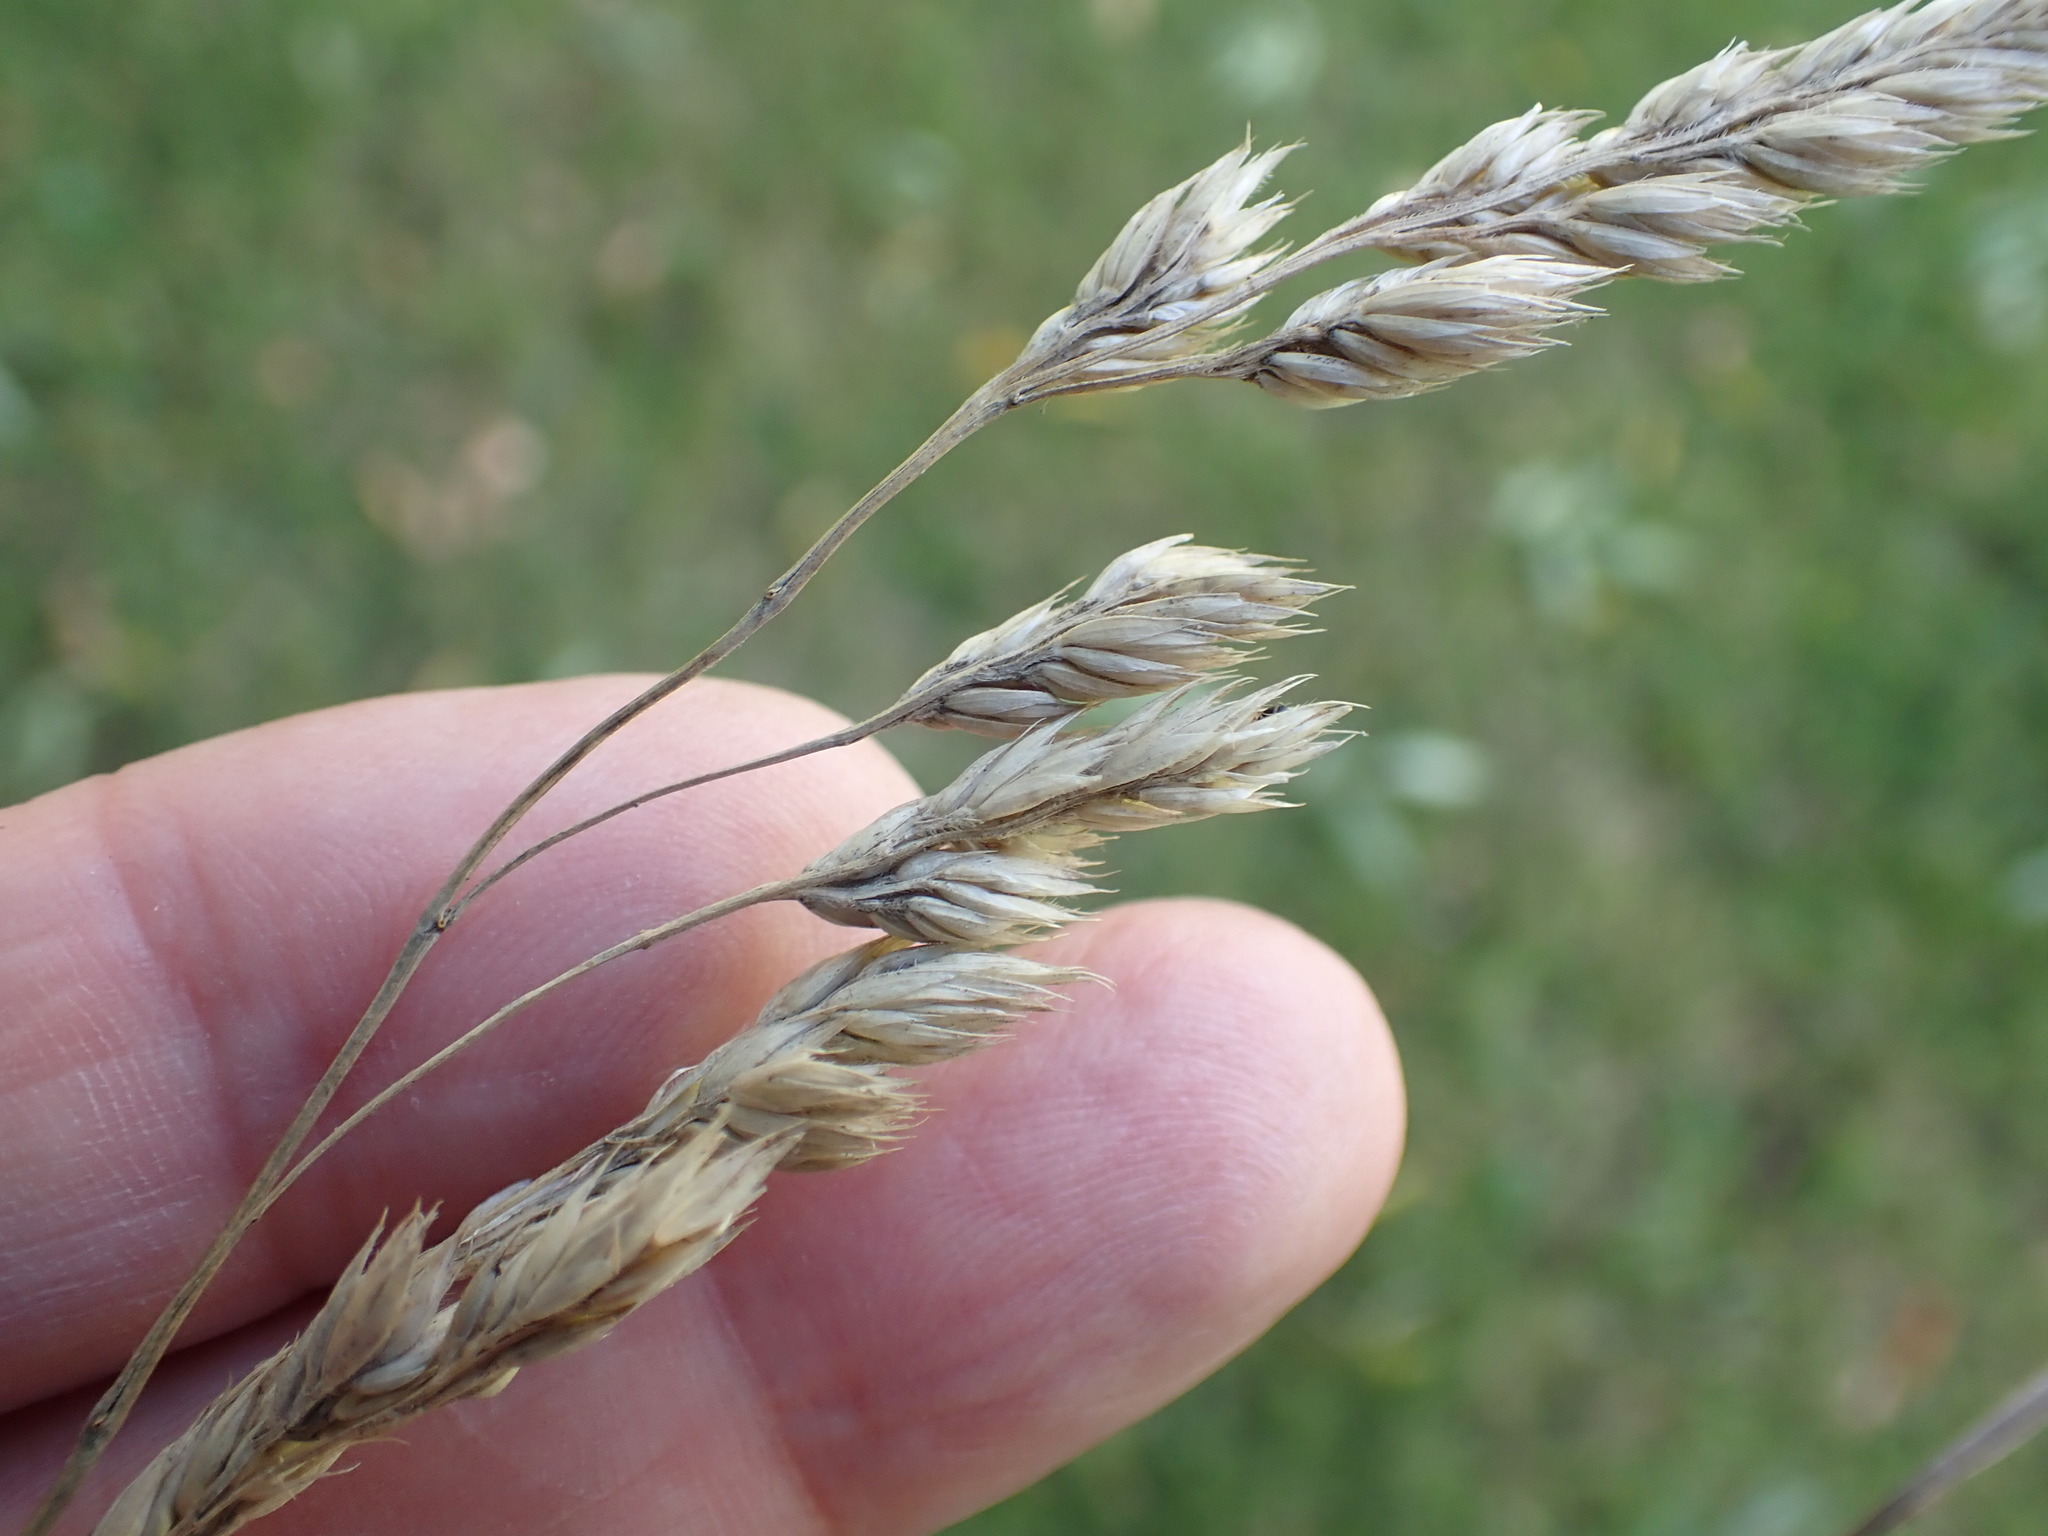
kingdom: Plantae
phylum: Tracheophyta
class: Liliopsida
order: Poales
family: Poaceae
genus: Dactylis
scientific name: Dactylis glomerata
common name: Orchardgrass
